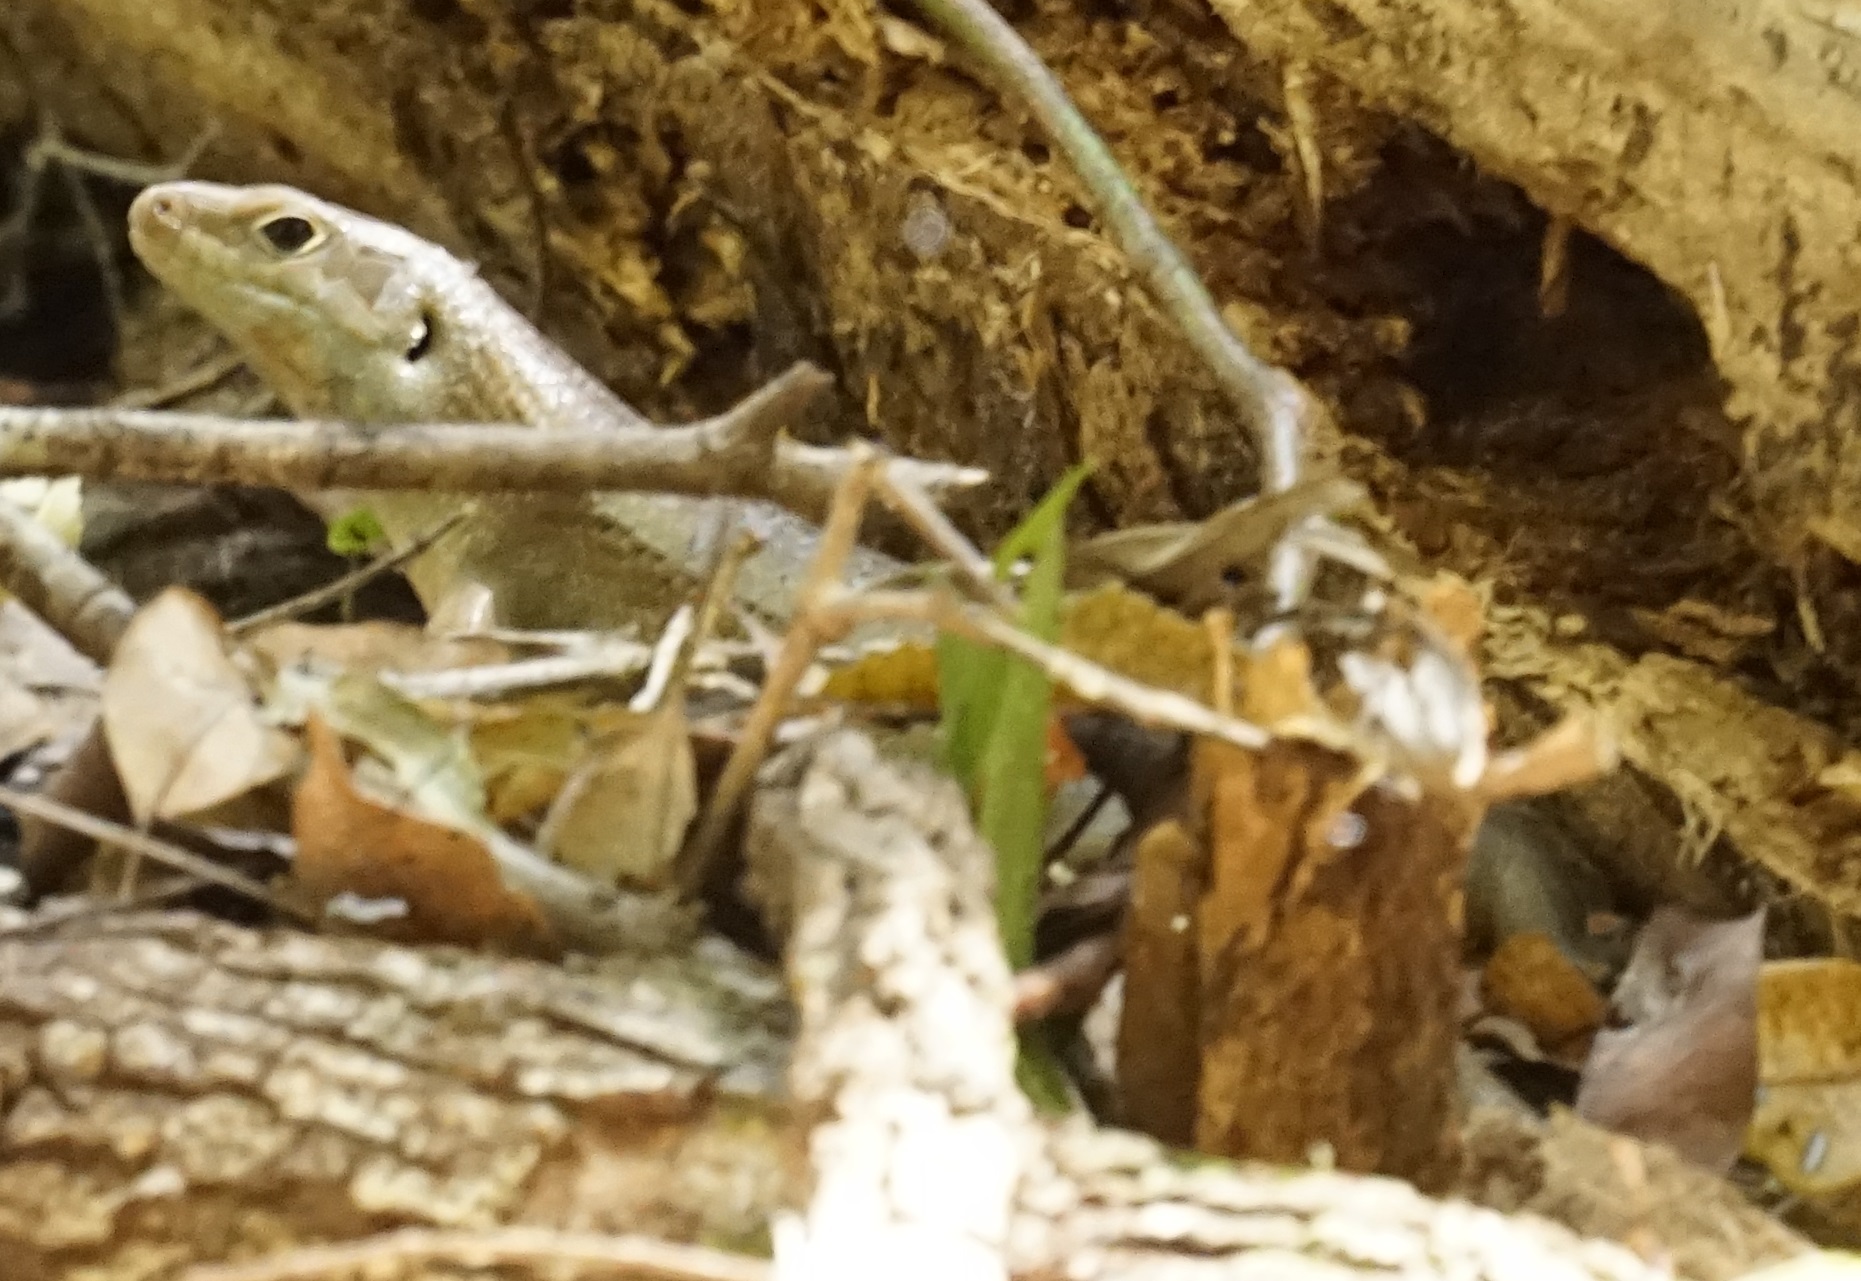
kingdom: Animalia
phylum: Chordata
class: Squamata
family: Scincidae
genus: Bellatorias
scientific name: Bellatorias frerei
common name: Major skink
